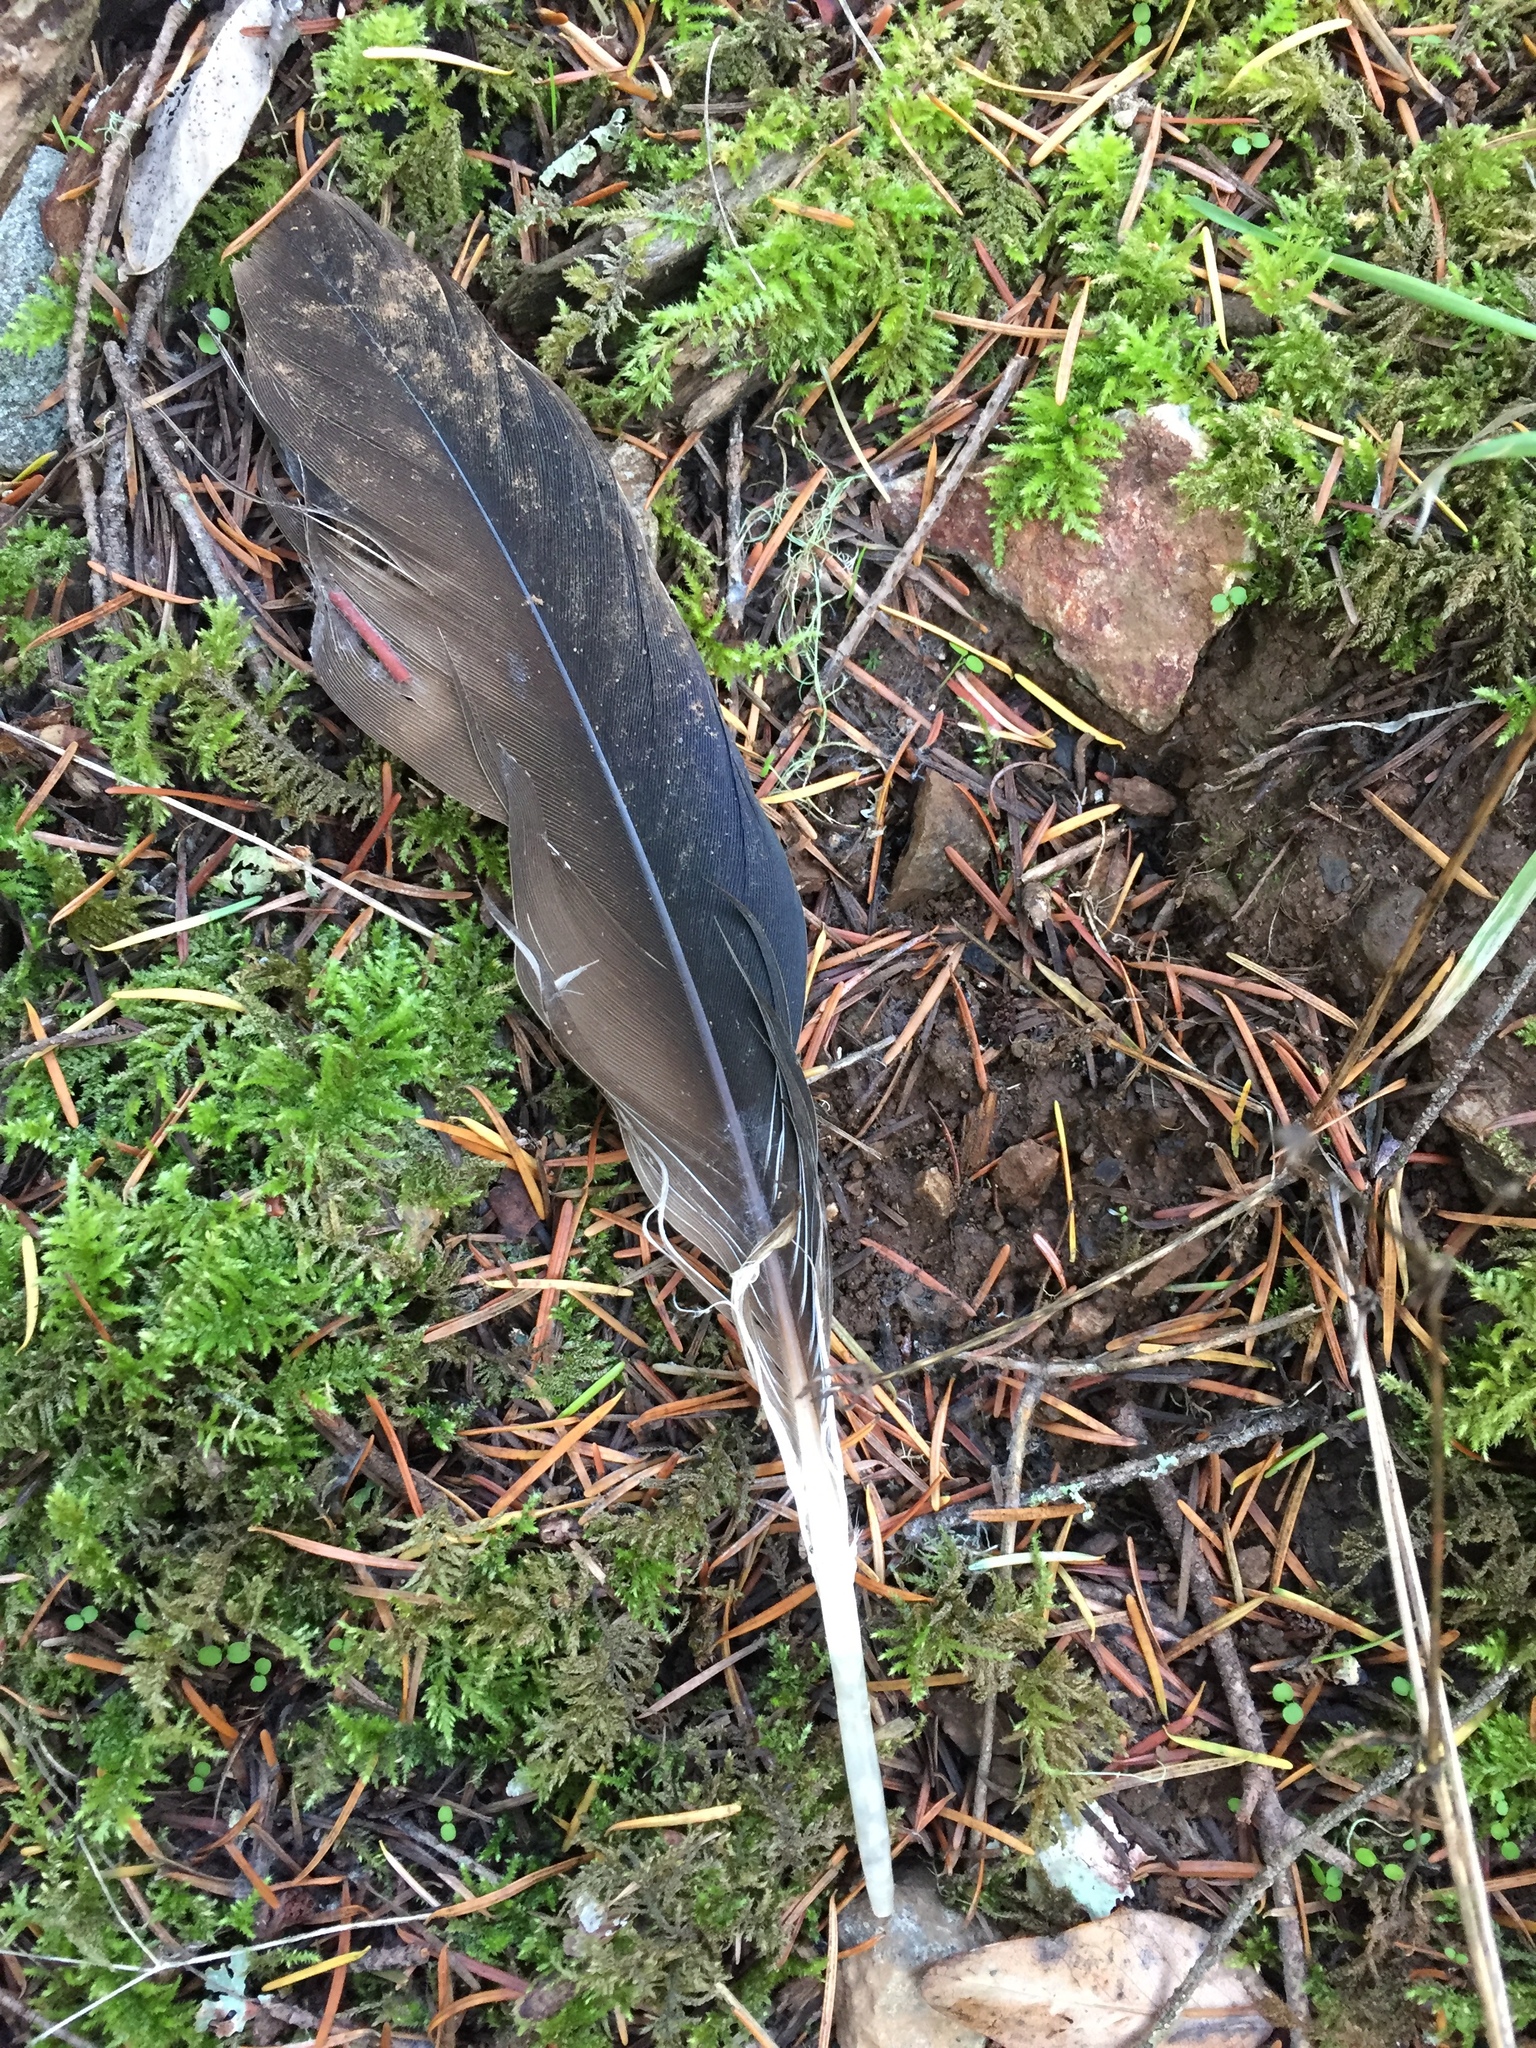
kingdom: Animalia
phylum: Chordata
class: Aves
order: Accipitriformes
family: Cathartidae
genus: Cathartes
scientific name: Cathartes aura
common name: Turkey vulture
